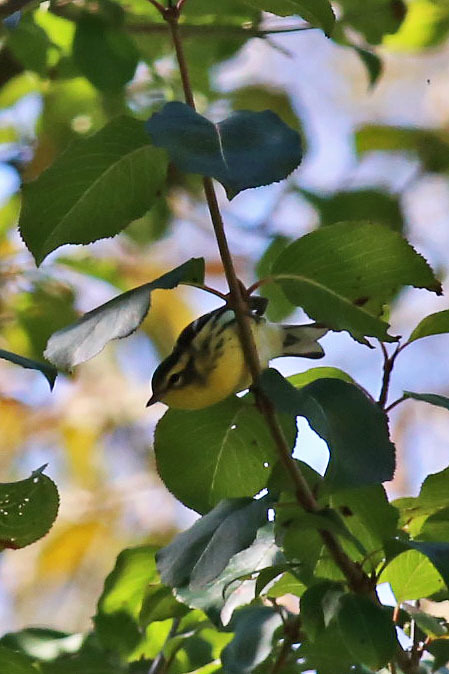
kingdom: Animalia
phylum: Chordata
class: Aves
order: Passeriformes
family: Parulidae
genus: Setophaga
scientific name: Setophaga fusca
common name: Blackburnian warbler
